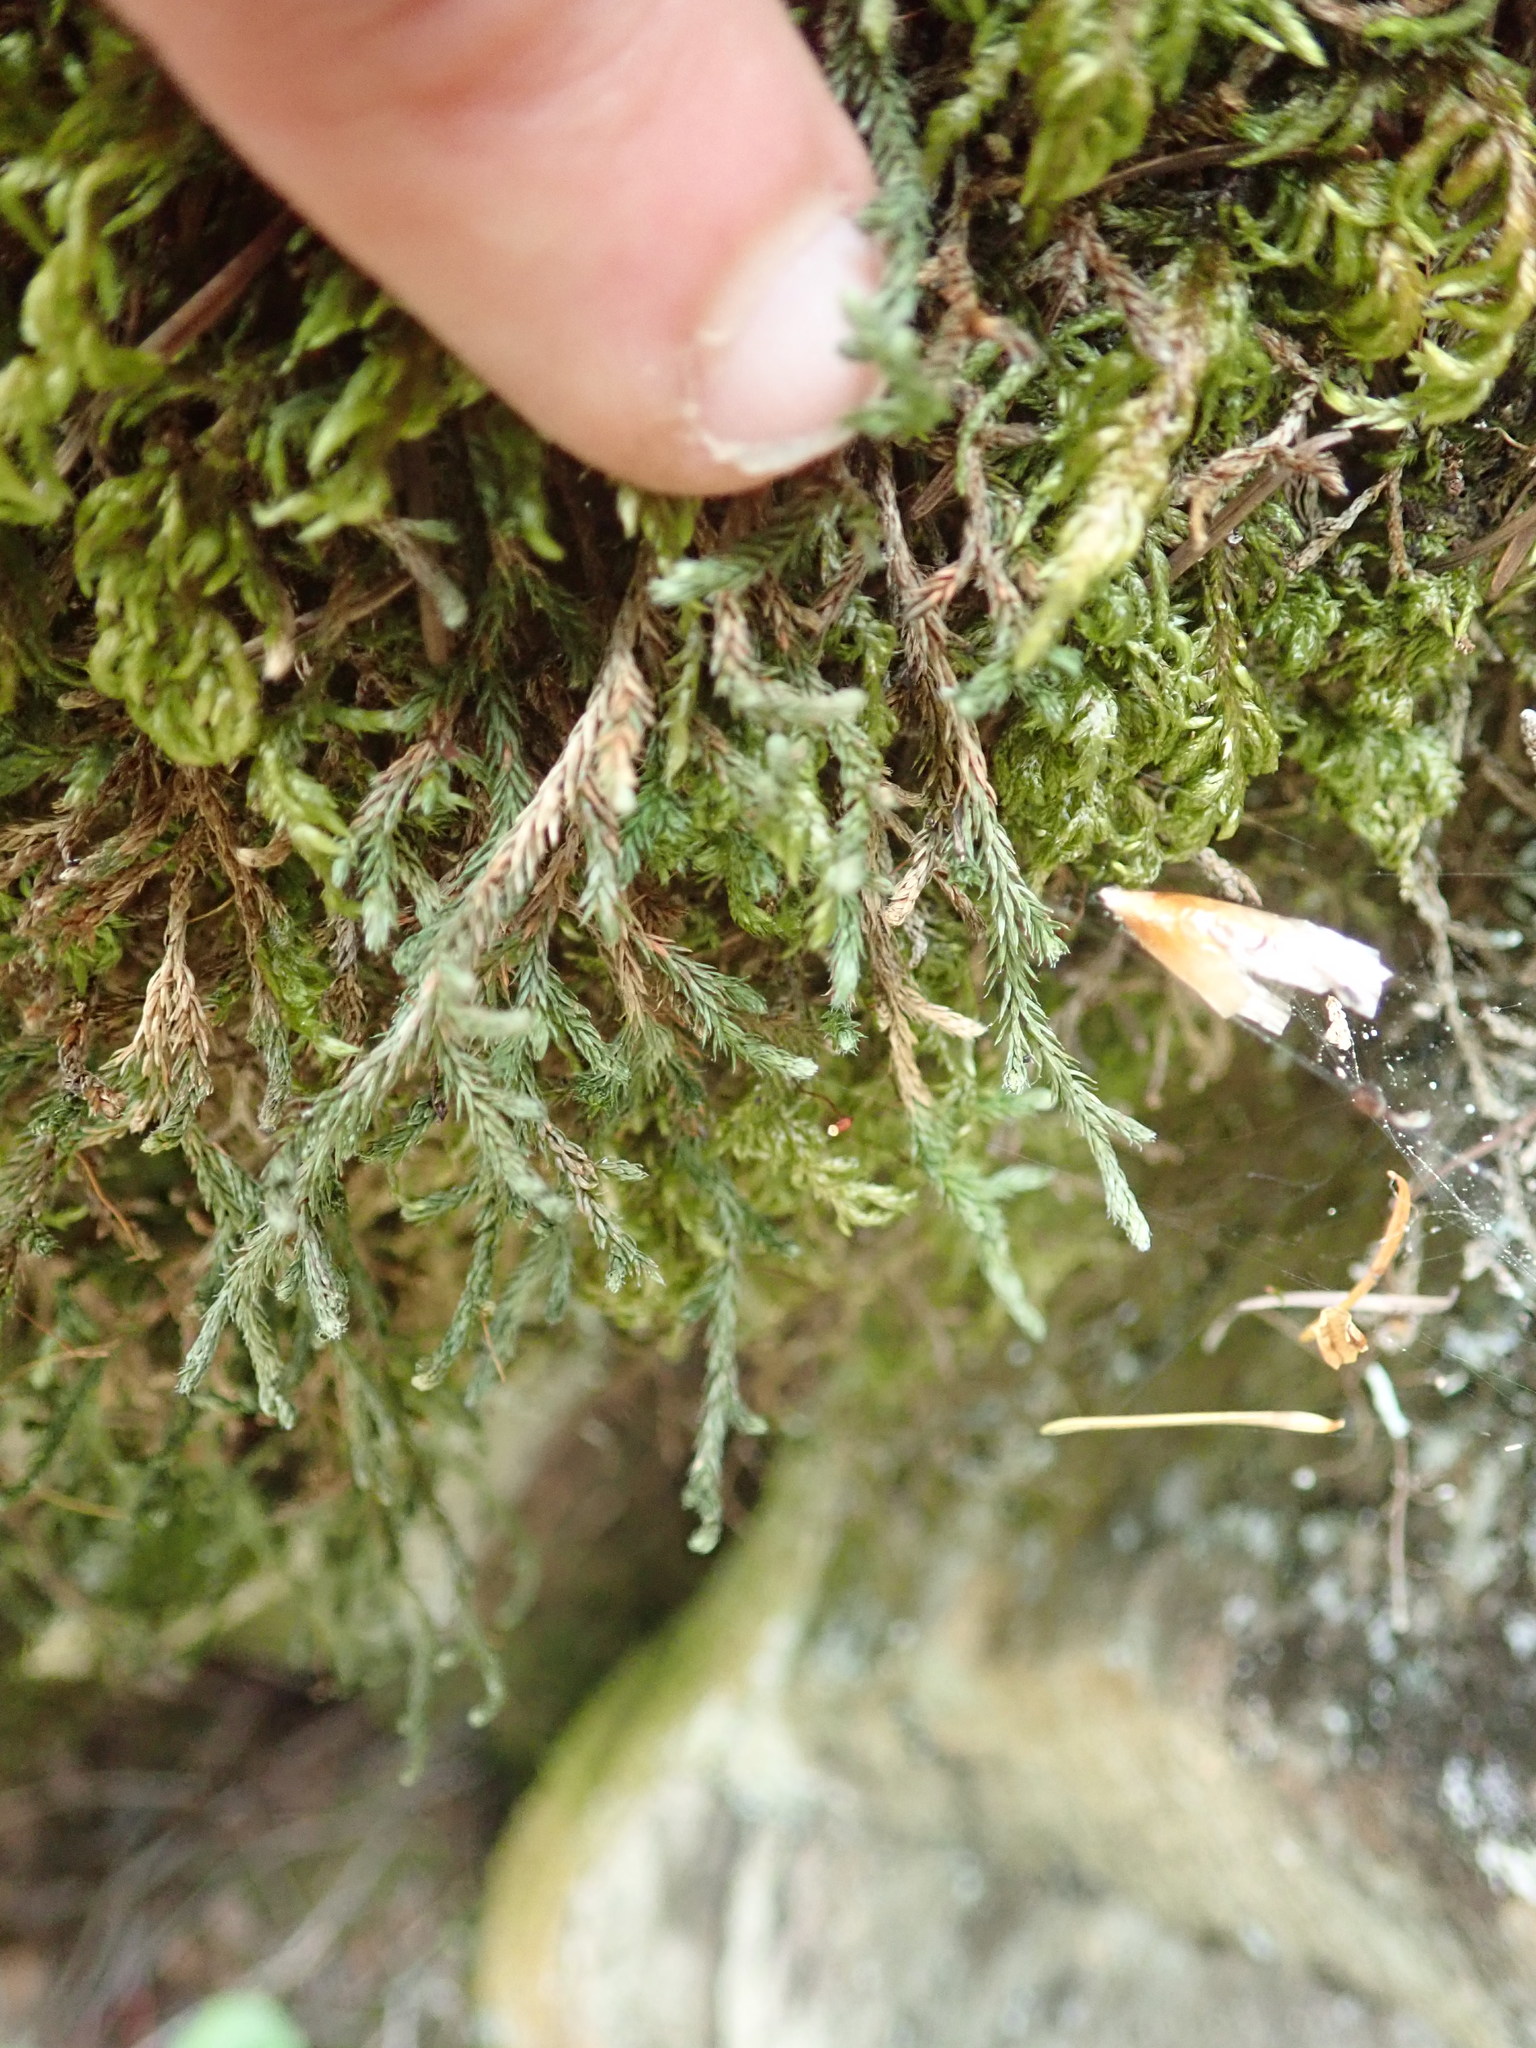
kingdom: Plantae
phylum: Tracheophyta
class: Lycopodiopsida
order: Selaginellales
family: Selaginellaceae
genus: Selaginella
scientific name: Selaginella wallacei
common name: Wallace's selaginella
